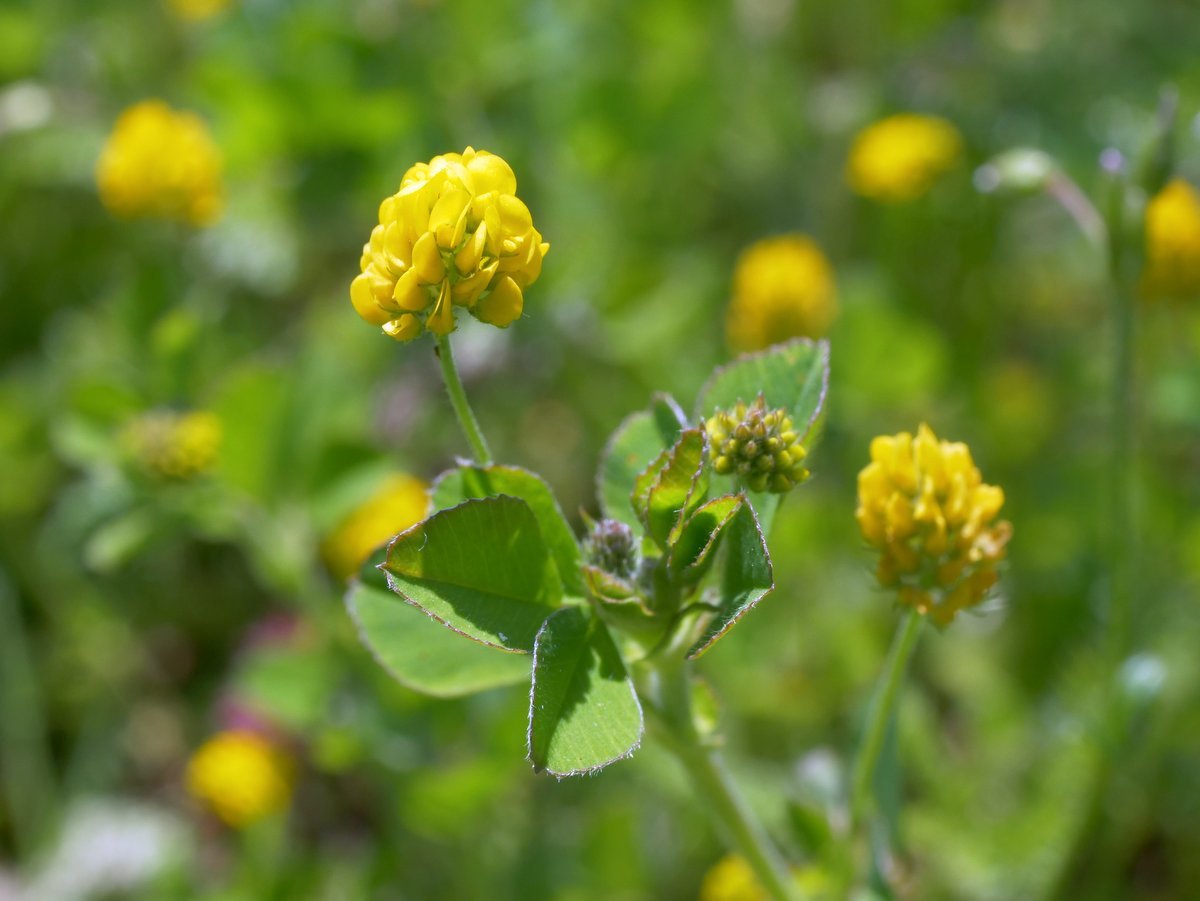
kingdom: Plantae
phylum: Tracheophyta
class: Magnoliopsida
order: Fabales
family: Fabaceae
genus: Medicago
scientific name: Medicago lupulina
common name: Black medick
